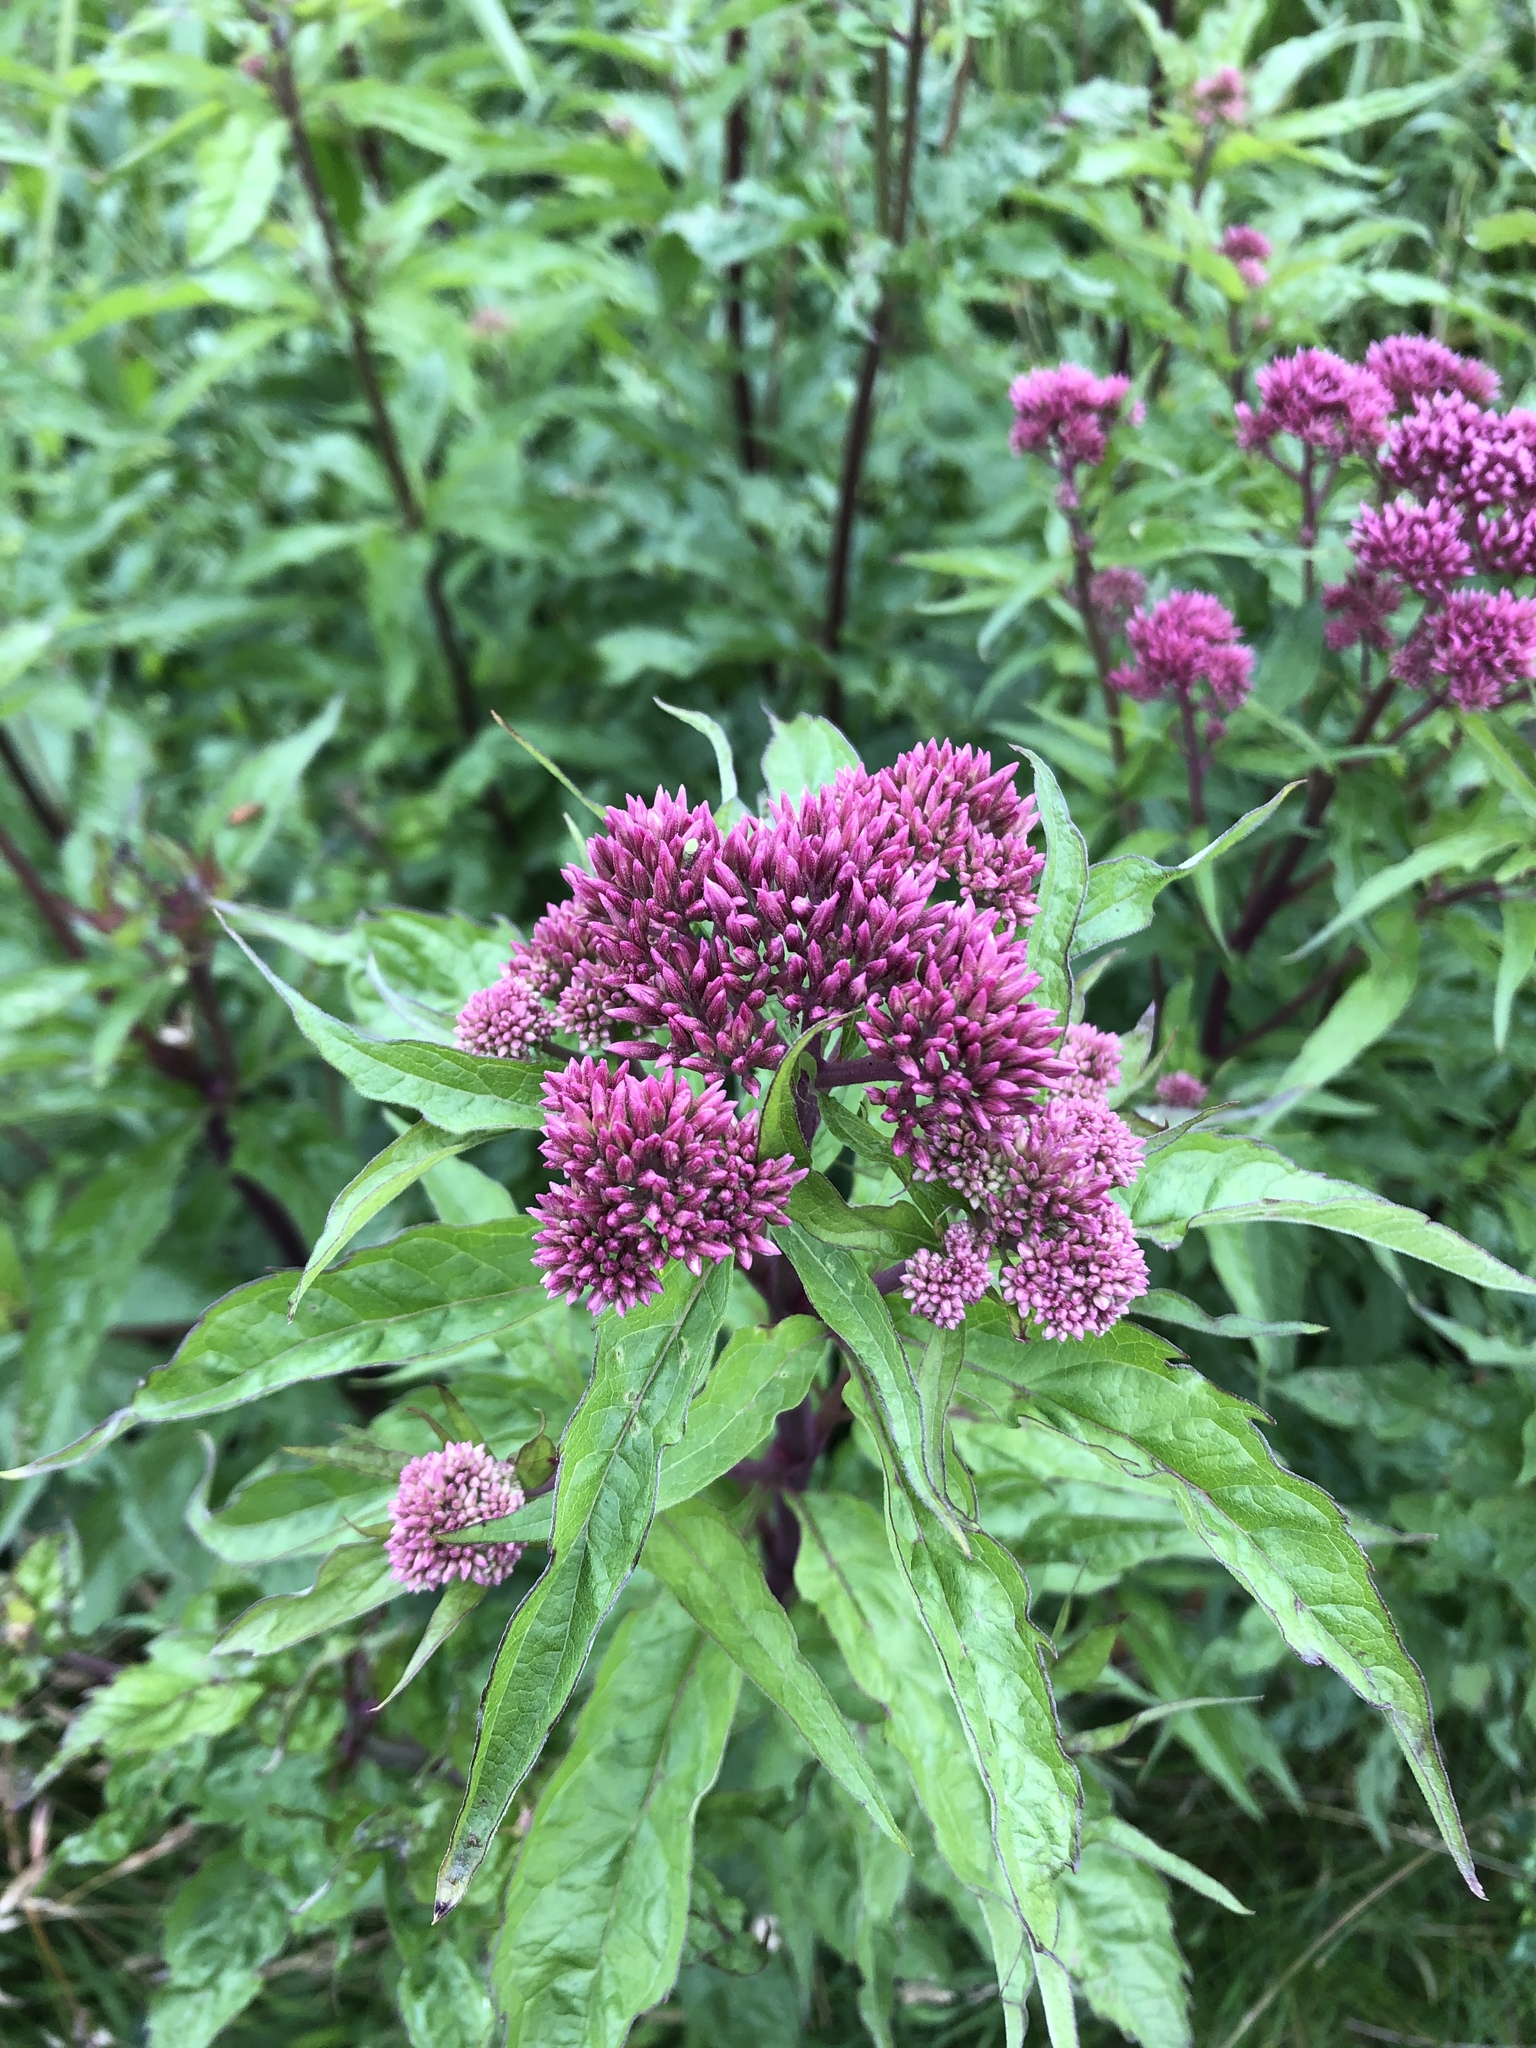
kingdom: Plantae
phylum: Tracheophyta
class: Magnoliopsida
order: Asterales
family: Asteraceae
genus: Eupatorium
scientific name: Eupatorium cannabinum
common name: Hemp-agrimony
